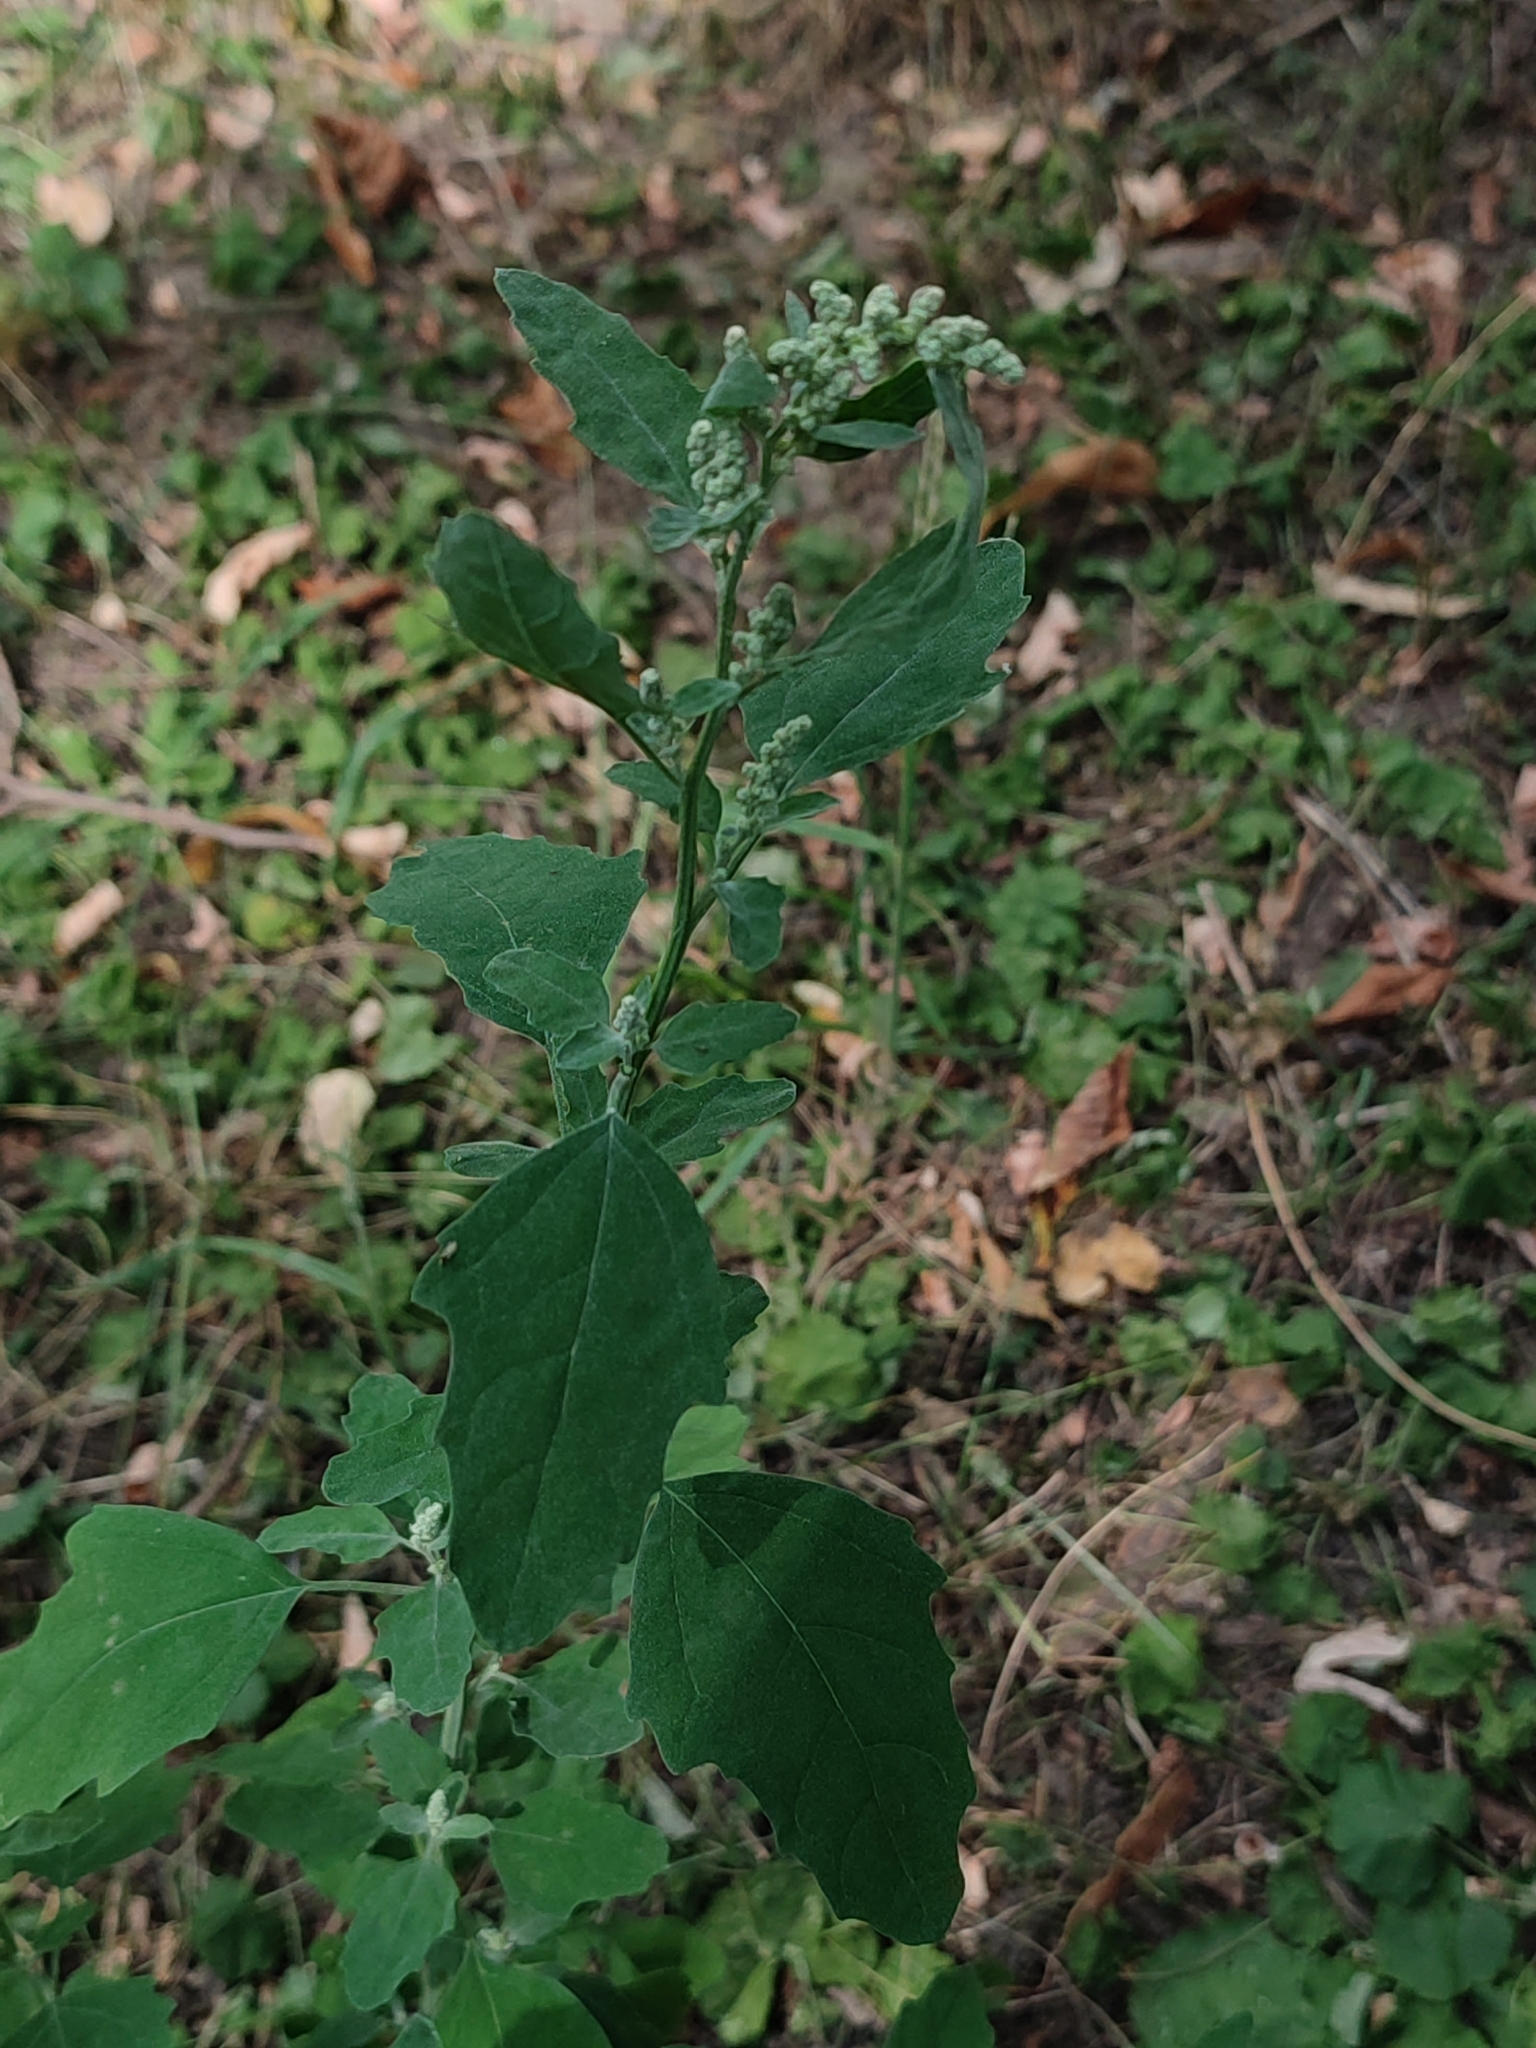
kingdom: Plantae
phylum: Tracheophyta
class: Magnoliopsida
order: Caryophyllales
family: Amaranthaceae
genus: Chenopodium
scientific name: Chenopodium album
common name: Fat-hen
